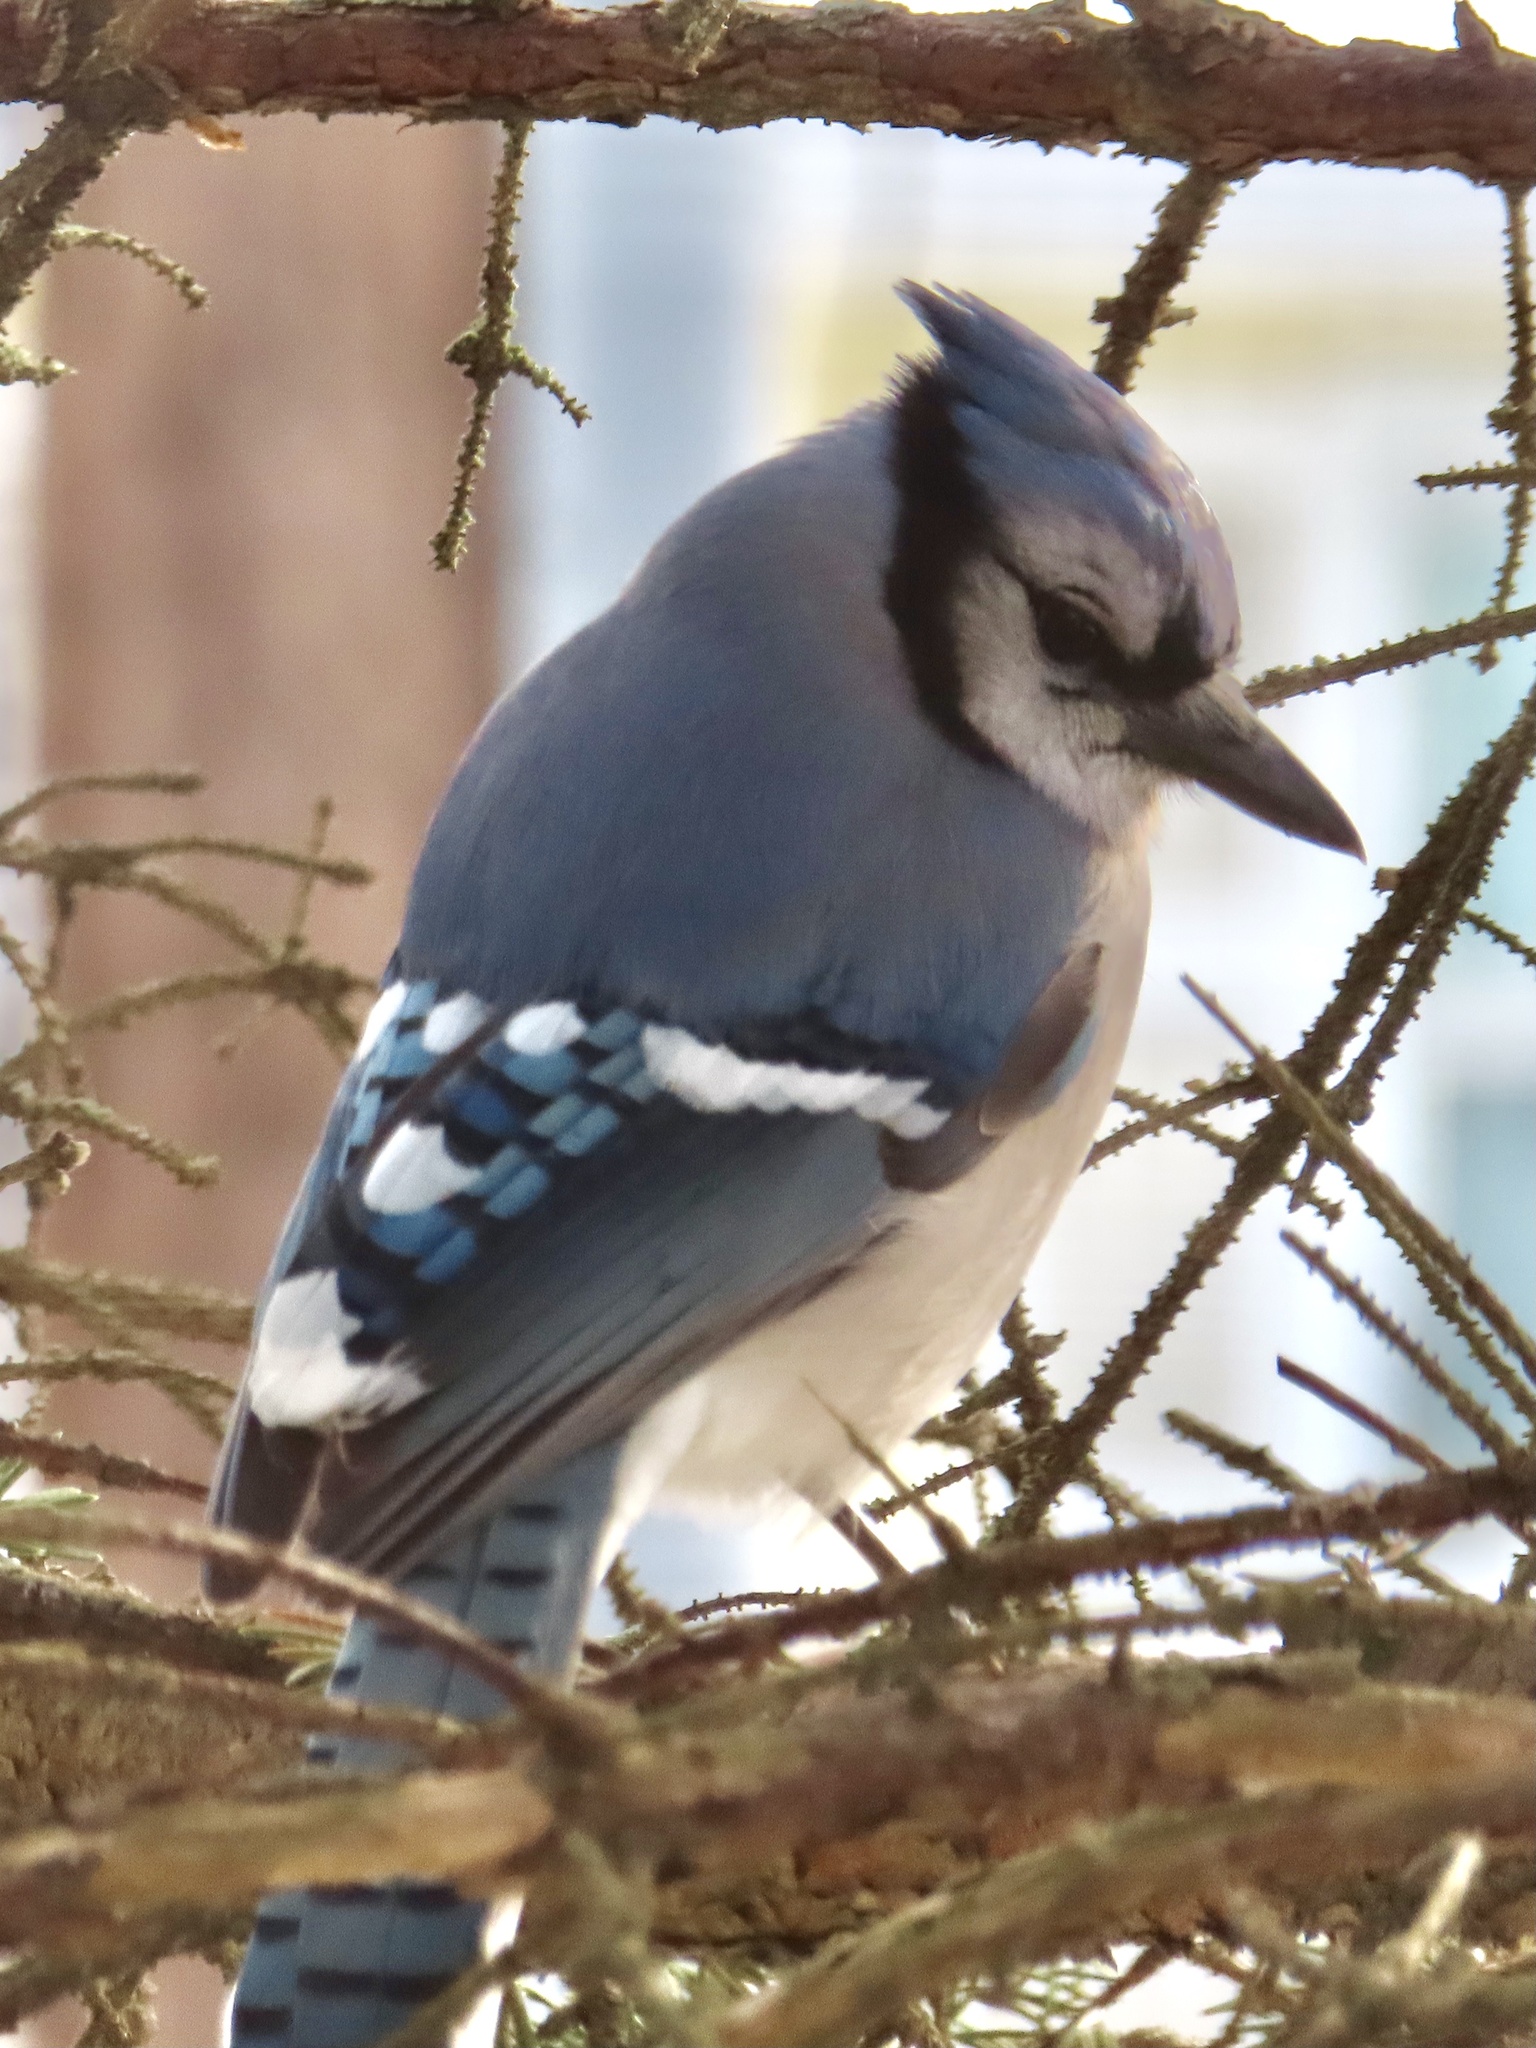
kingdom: Animalia
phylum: Chordata
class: Aves
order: Passeriformes
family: Corvidae
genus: Cyanocitta
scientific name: Cyanocitta cristata
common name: Blue jay
